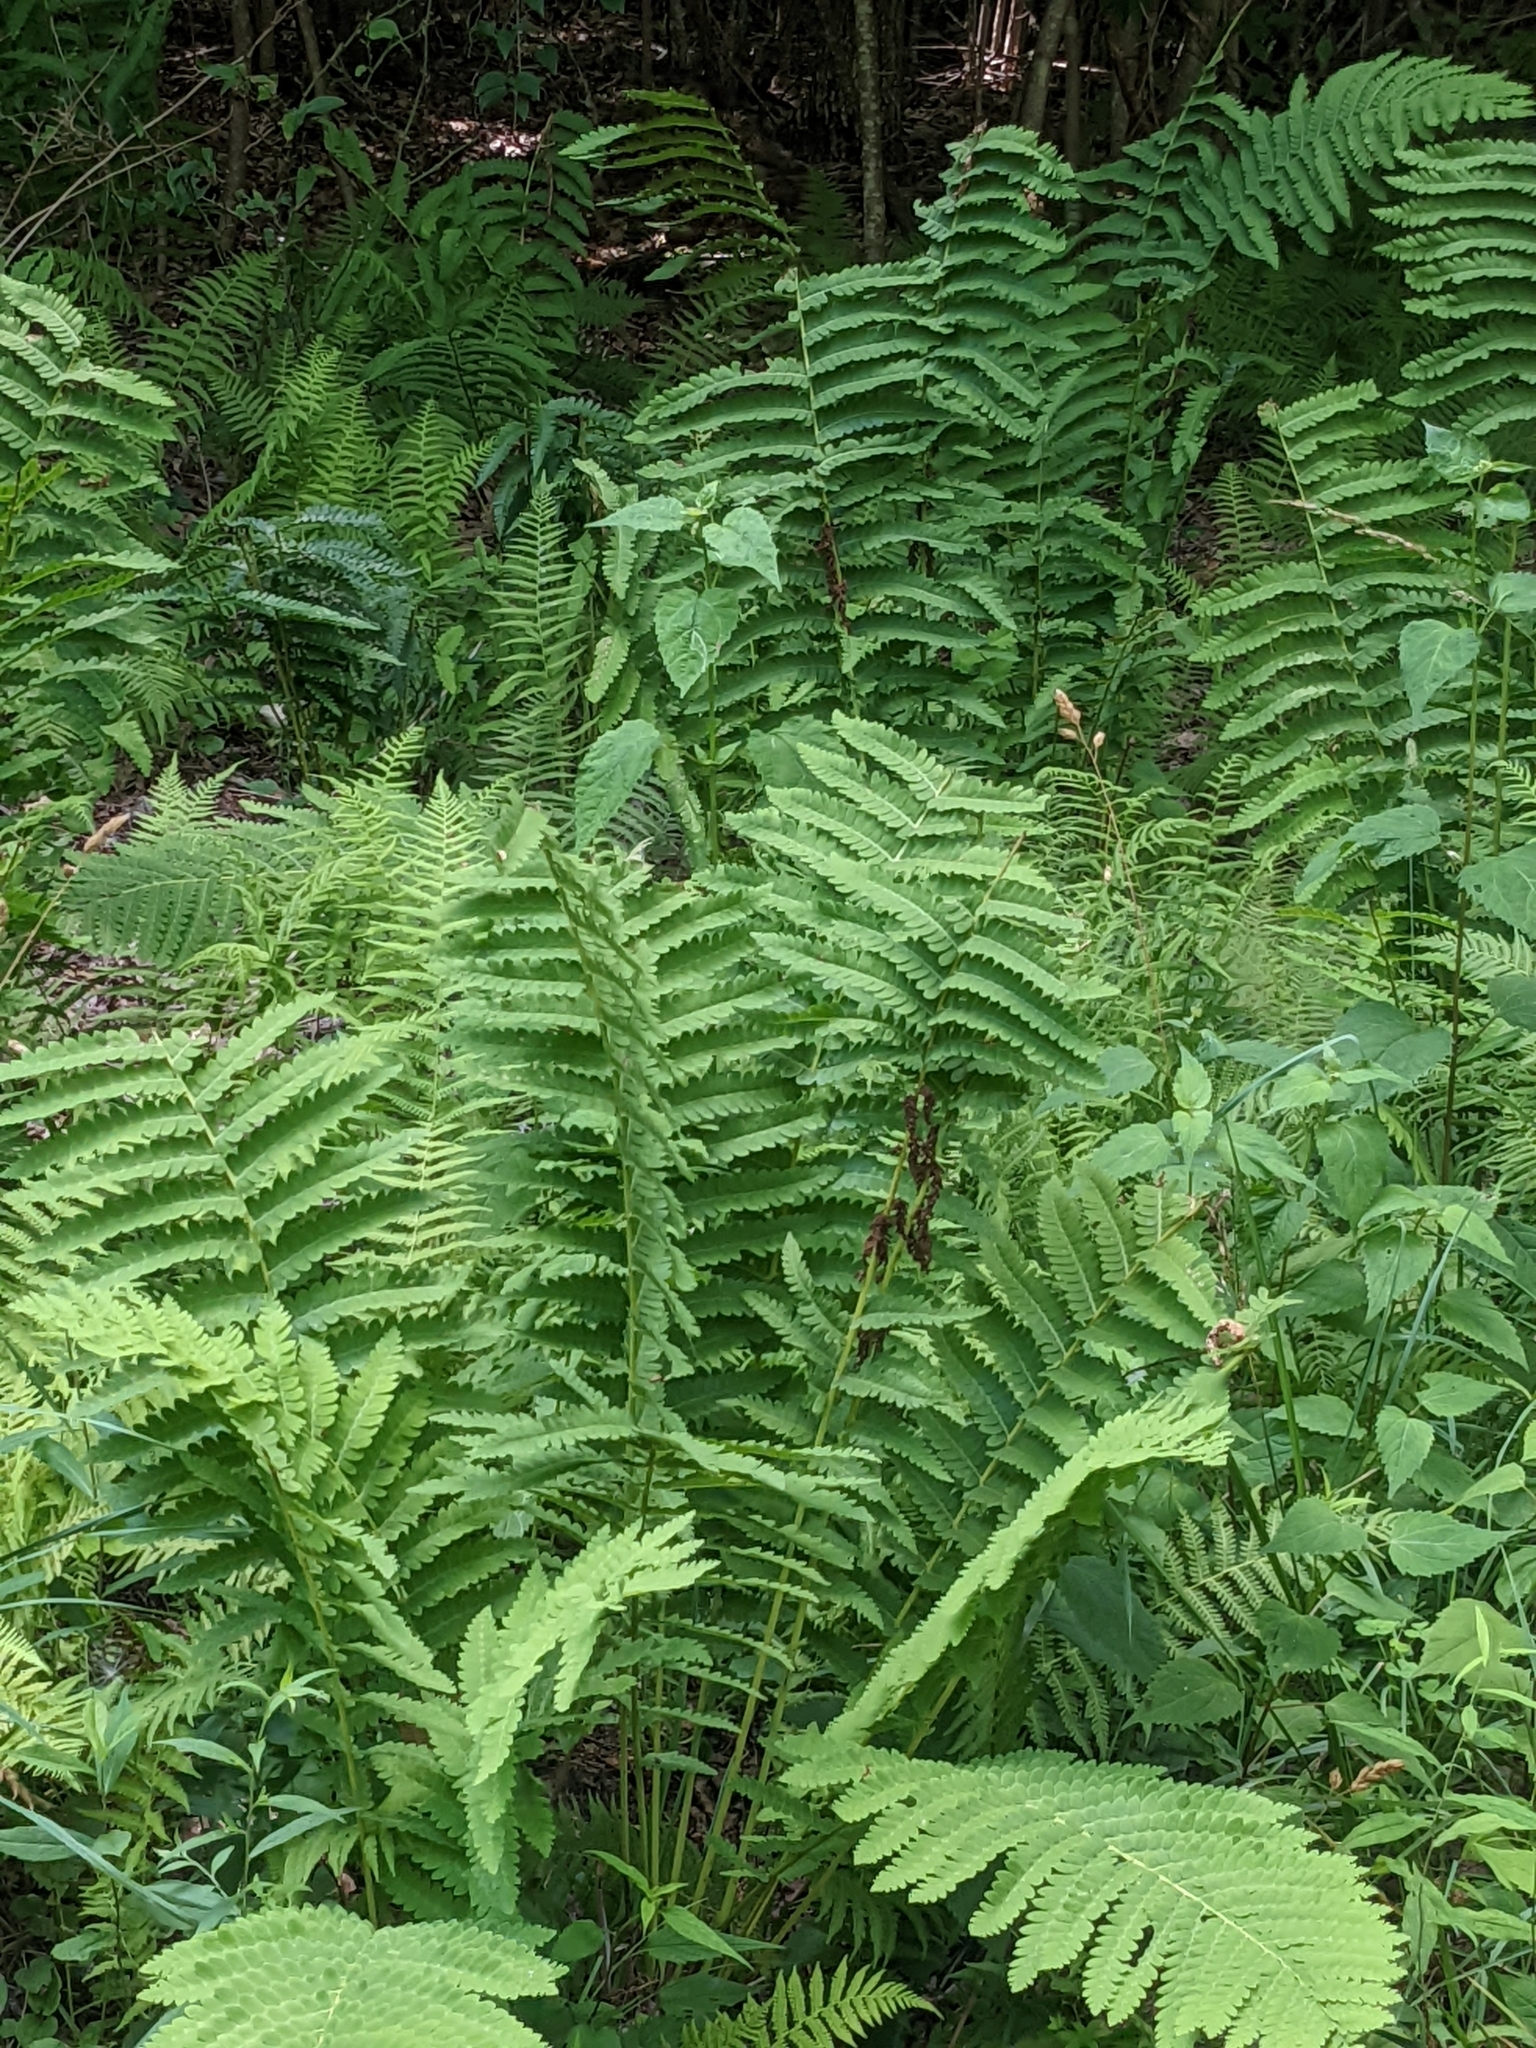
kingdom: Plantae
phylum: Tracheophyta
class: Polypodiopsida
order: Osmundales
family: Osmundaceae
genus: Claytosmunda
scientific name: Claytosmunda claytoniana
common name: Clayton's fern
